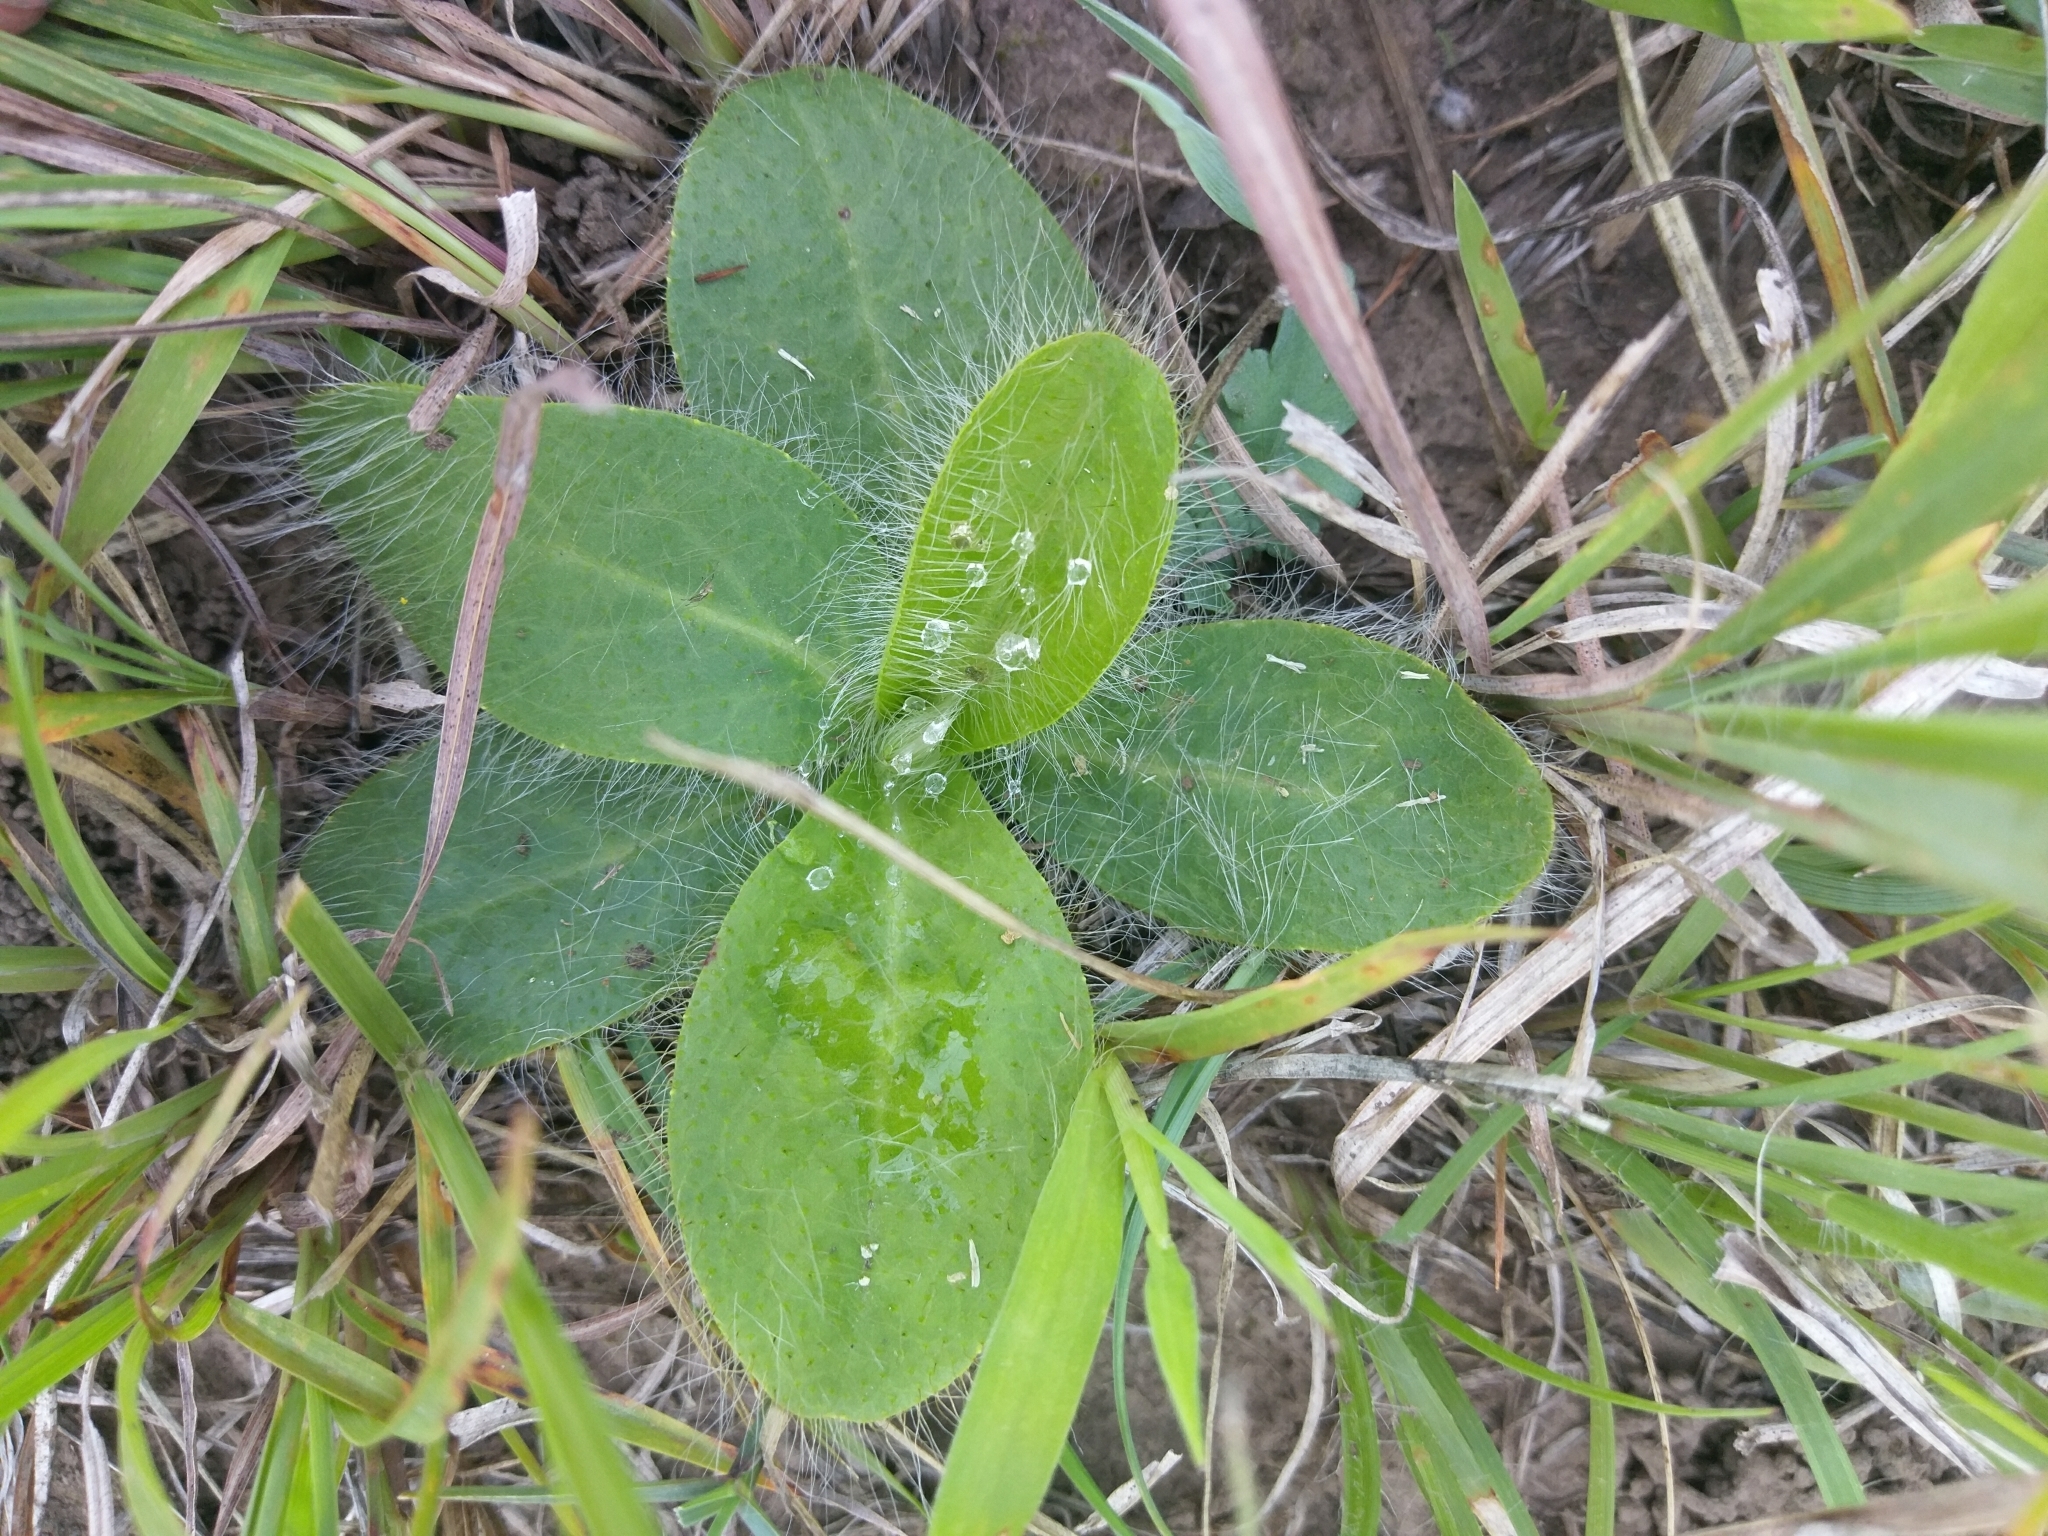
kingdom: Plantae
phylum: Tracheophyta
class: Magnoliopsida
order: Asterales
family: Asteraceae
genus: Hieracium
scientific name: Hieracium longipilum
